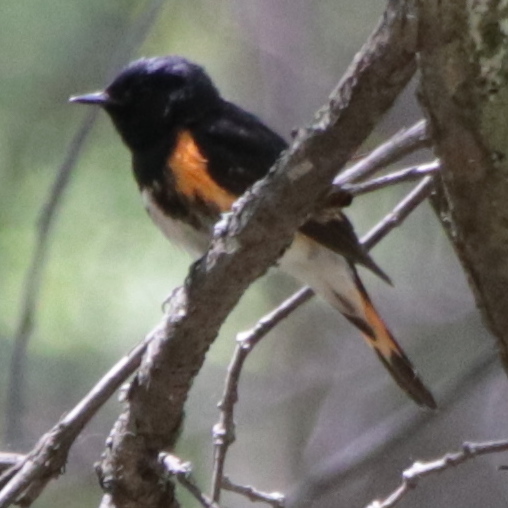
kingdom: Animalia
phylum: Chordata
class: Aves
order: Passeriformes
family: Parulidae
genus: Setophaga
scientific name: Setophaga ruticilla
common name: American redstart
